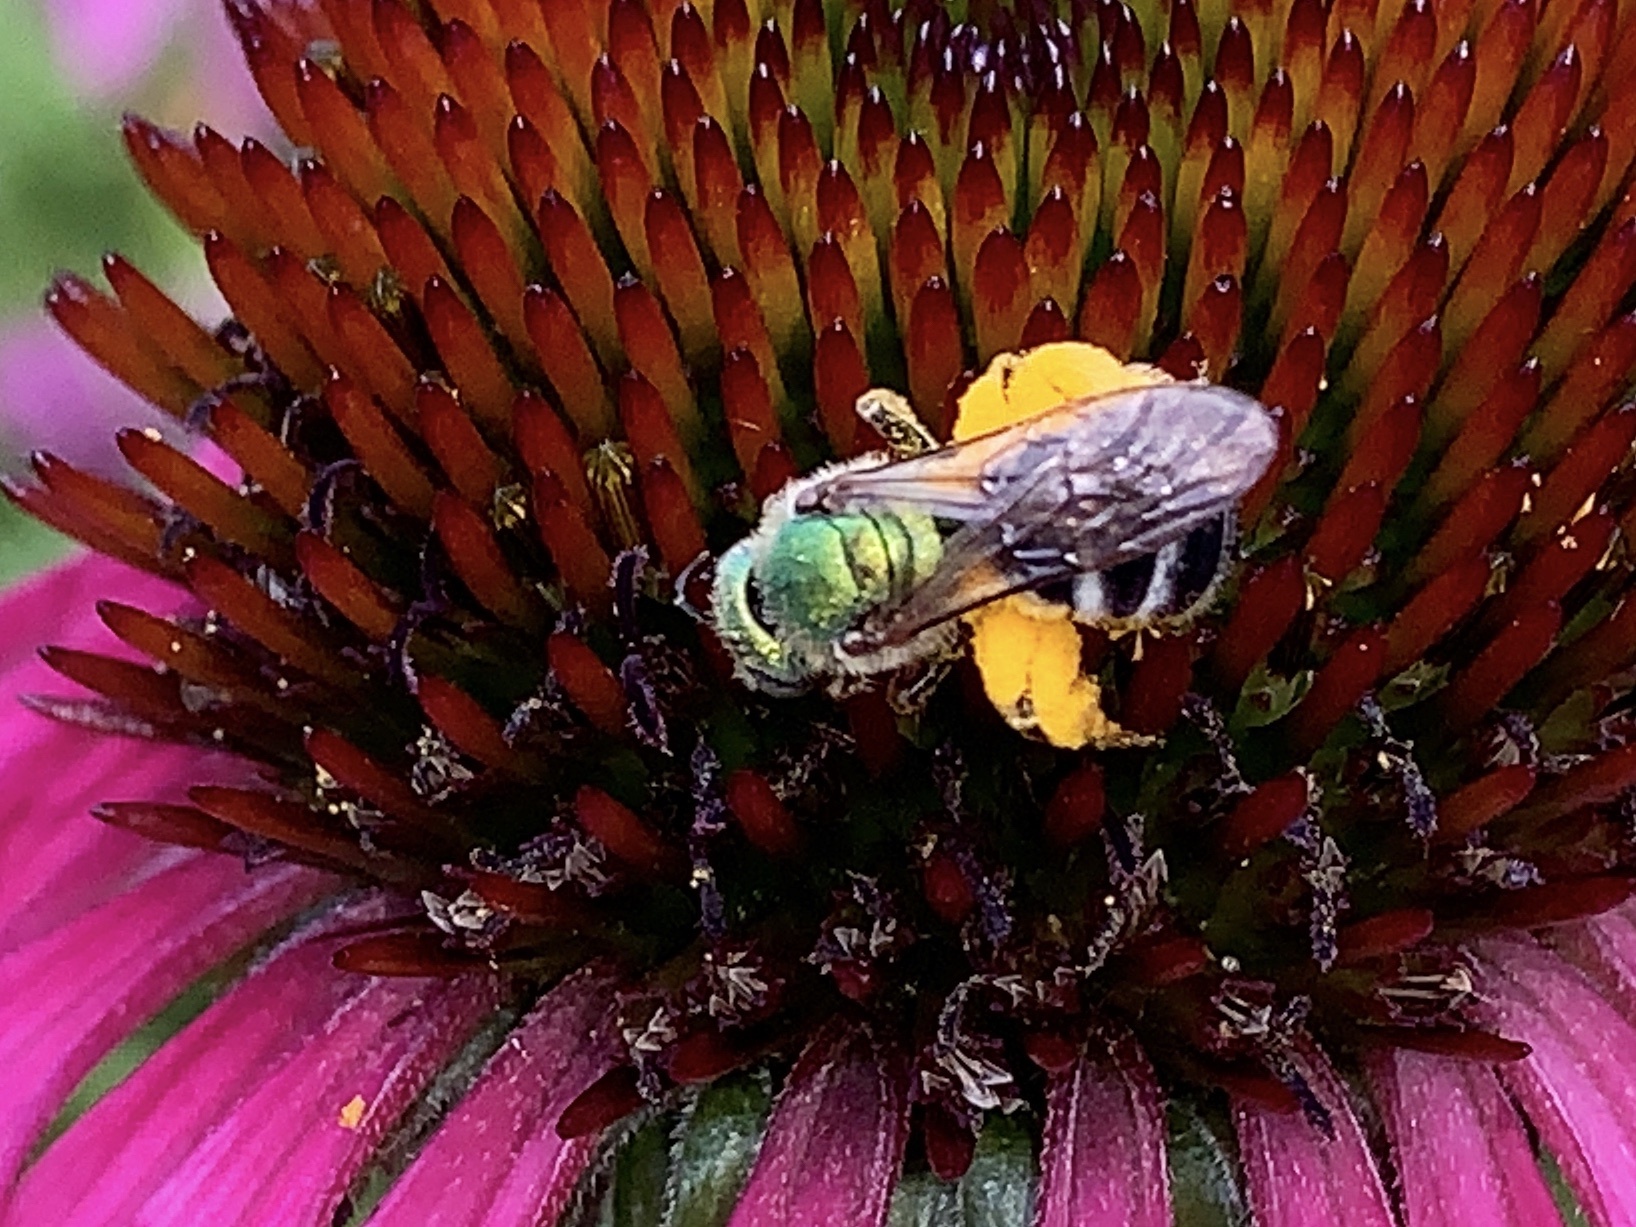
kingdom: Animalia
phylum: Arthropoda
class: Insecta
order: Hymenoptera
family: Halictidae
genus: Agapostemon
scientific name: Agapostemon virescens
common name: Bicolored striped sweat bee
